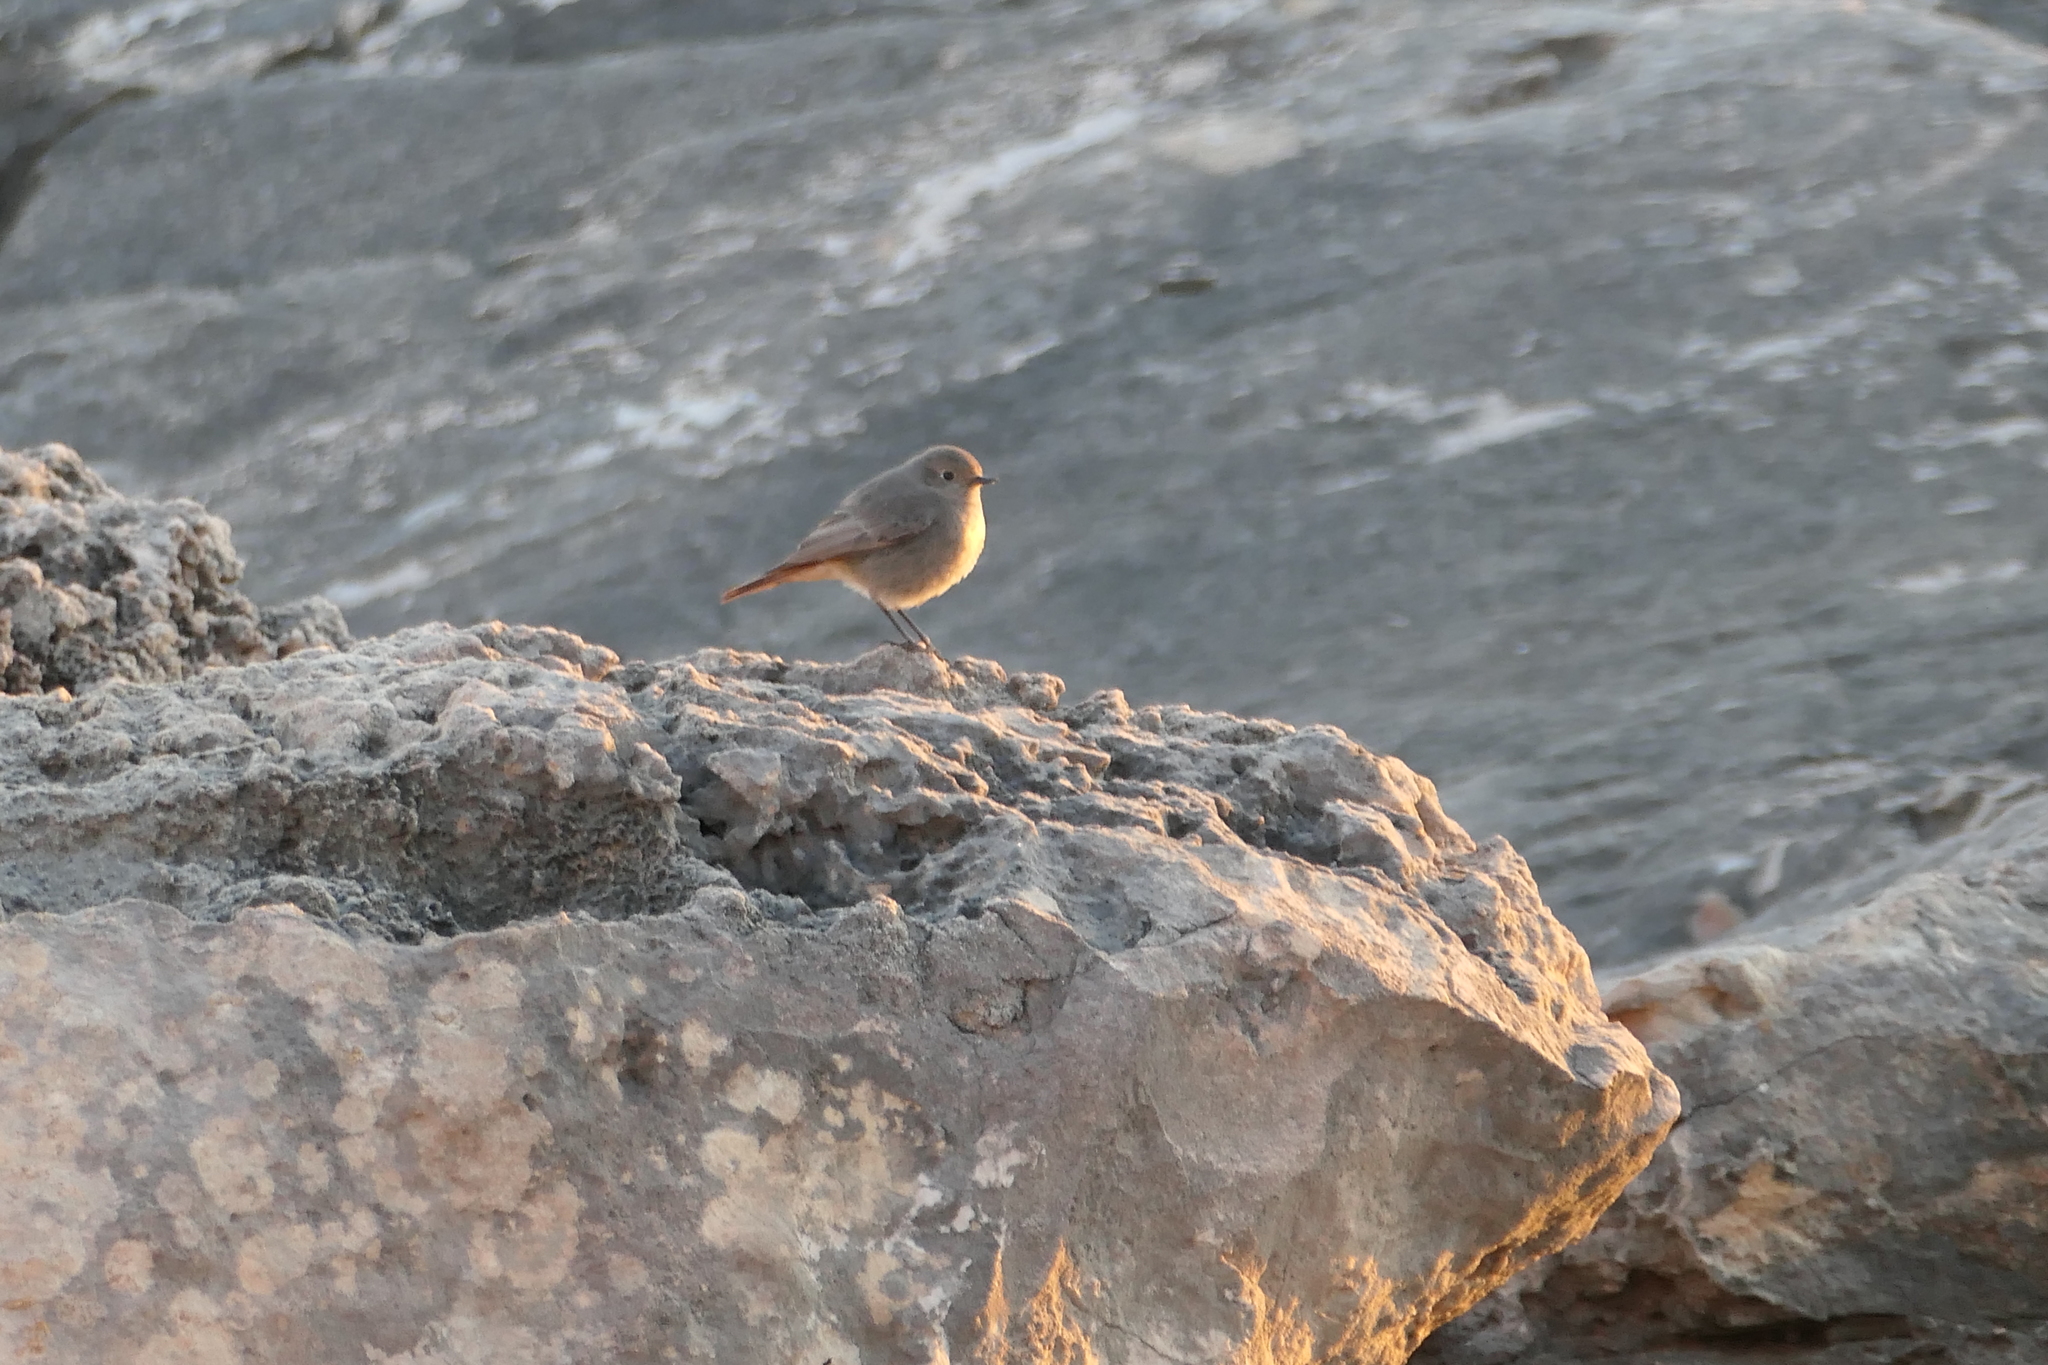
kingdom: Animalia
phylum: Chordata
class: Aves
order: Passeriformes
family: Muscicapidae
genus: Phoenicurus
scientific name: Phoenicurus ochruros
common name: Black redstart
